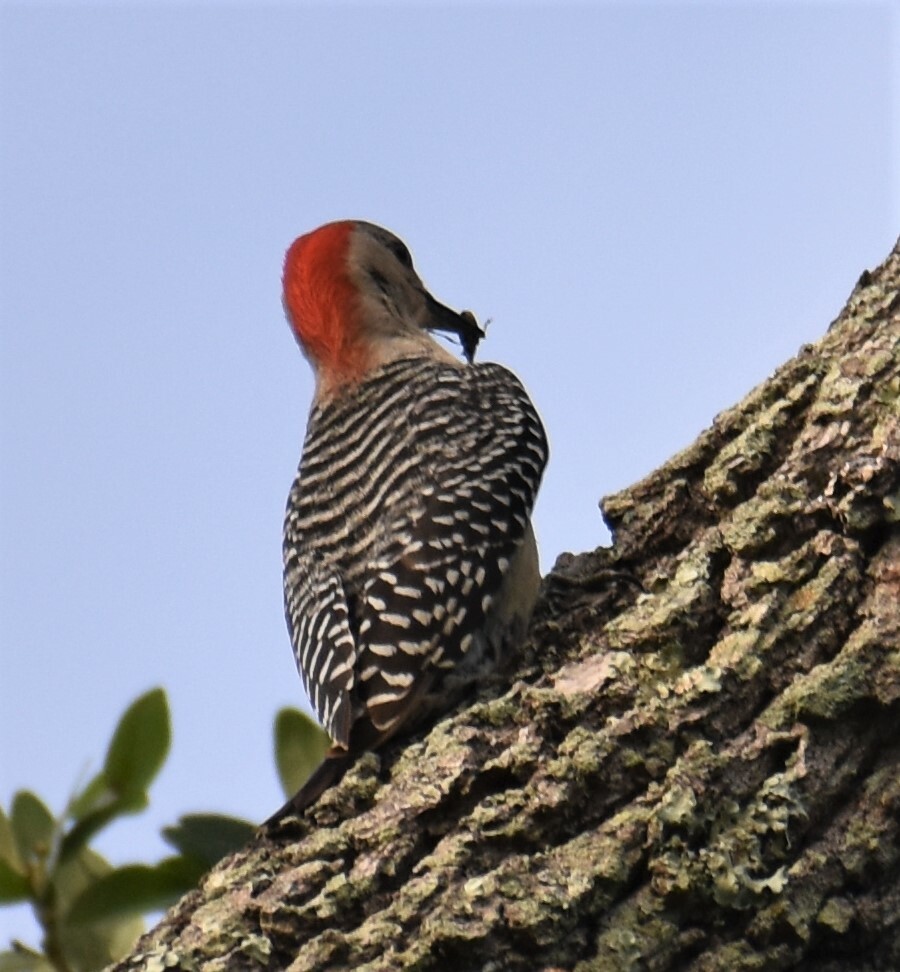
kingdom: Animalia
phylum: Chordata
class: Aves
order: Piciformes
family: Picidae
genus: Melanerpes
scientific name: Melanerpes carolinus
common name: Red-bellied woodpecker
